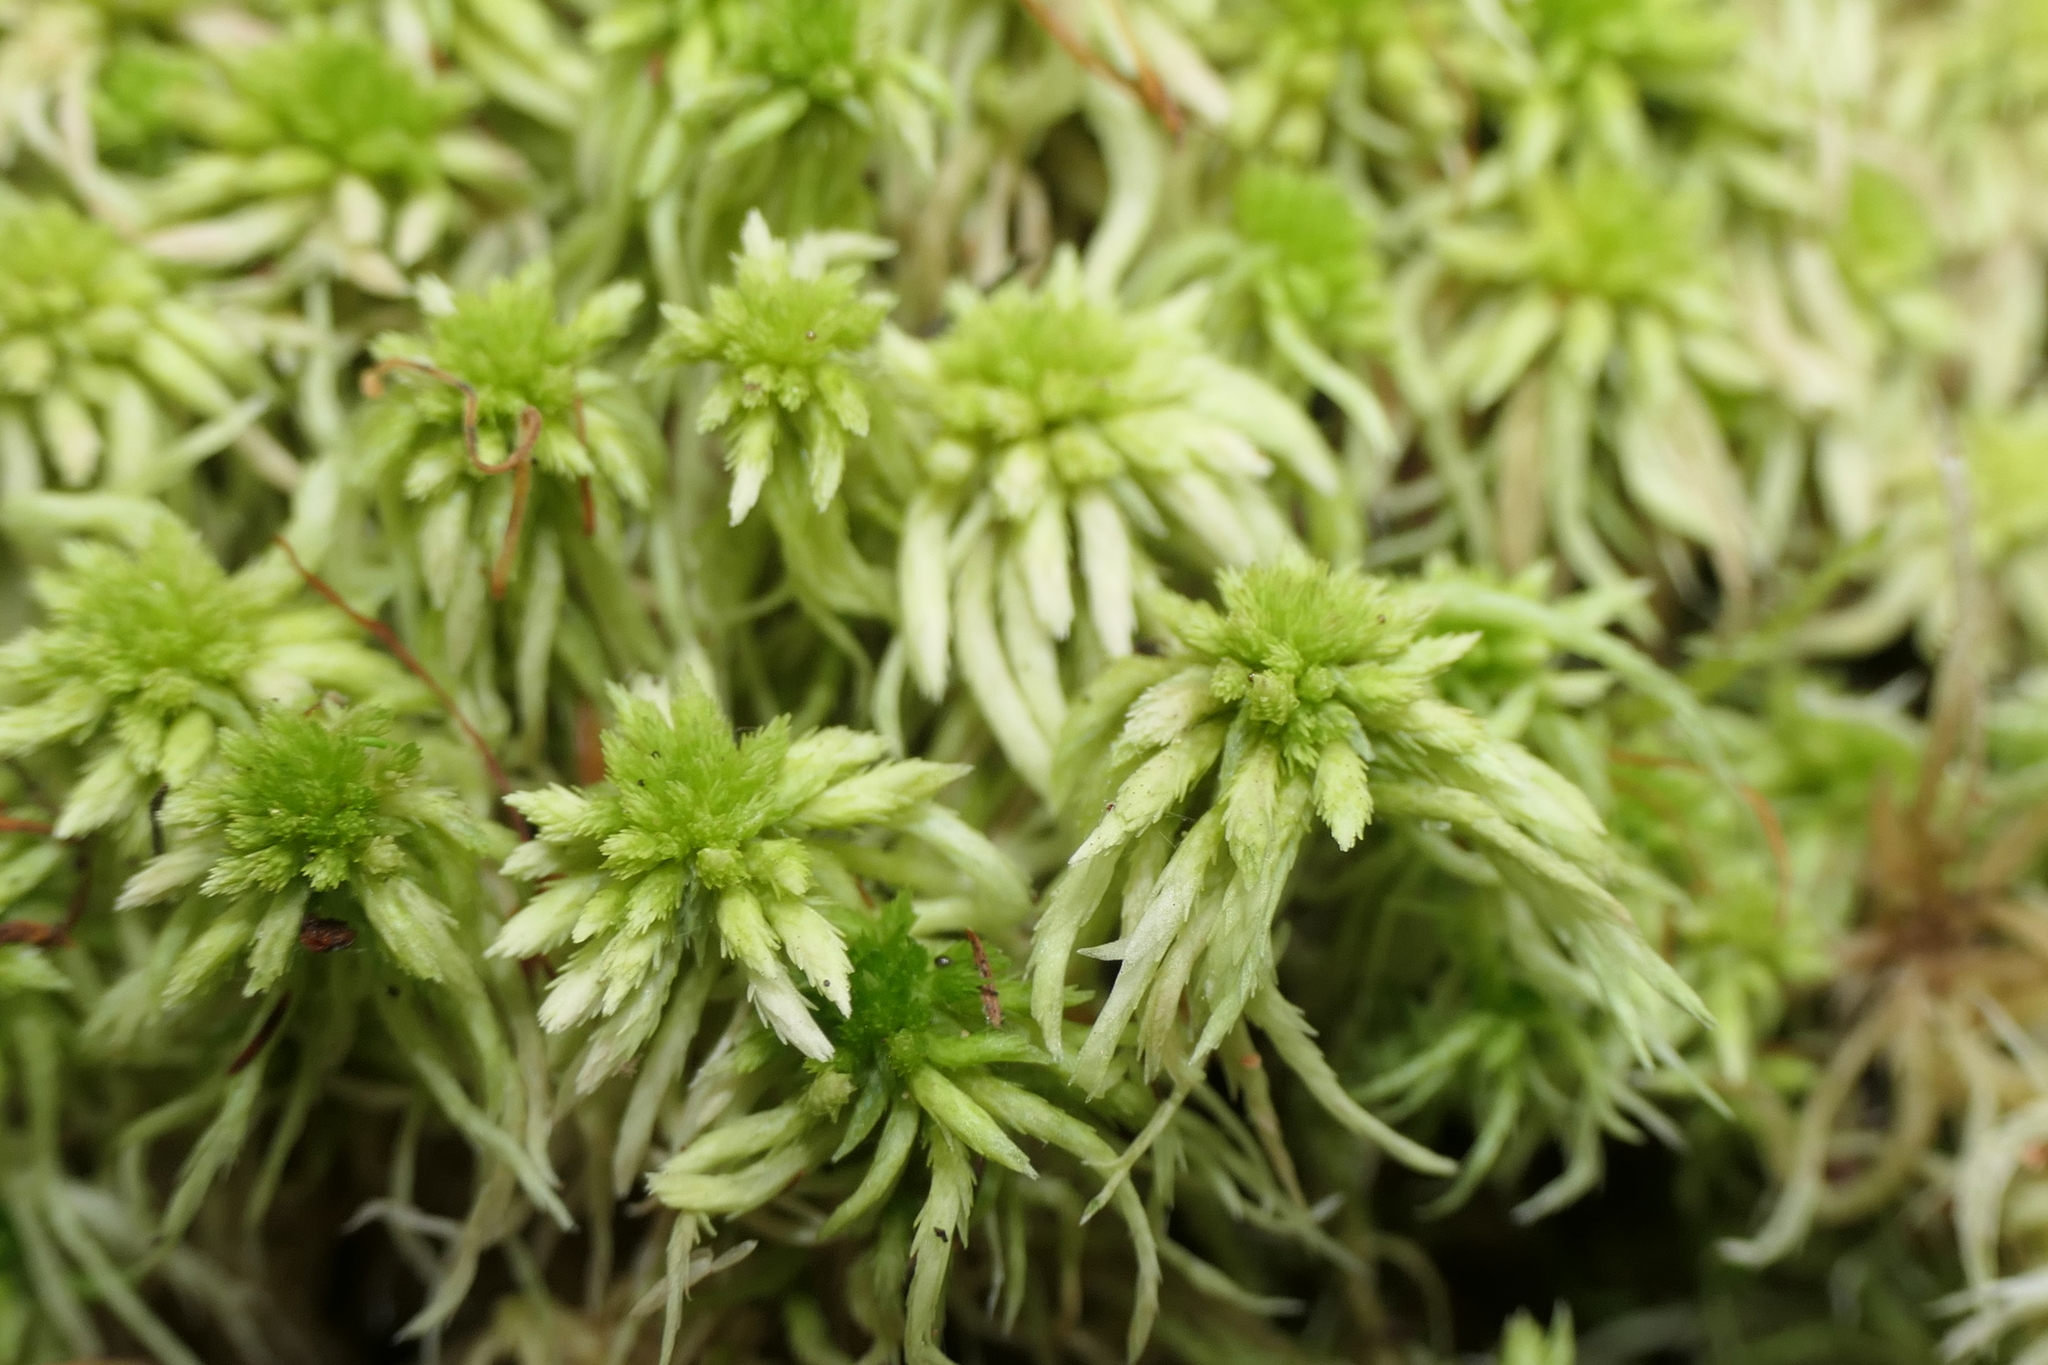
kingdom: Plantae
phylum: Bryophyta
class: Sphagnopsida
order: Sphagnales
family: Sphagnaceae
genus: Sphagnum
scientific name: Sphagnum subnitens
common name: Lustrous bog-moss
